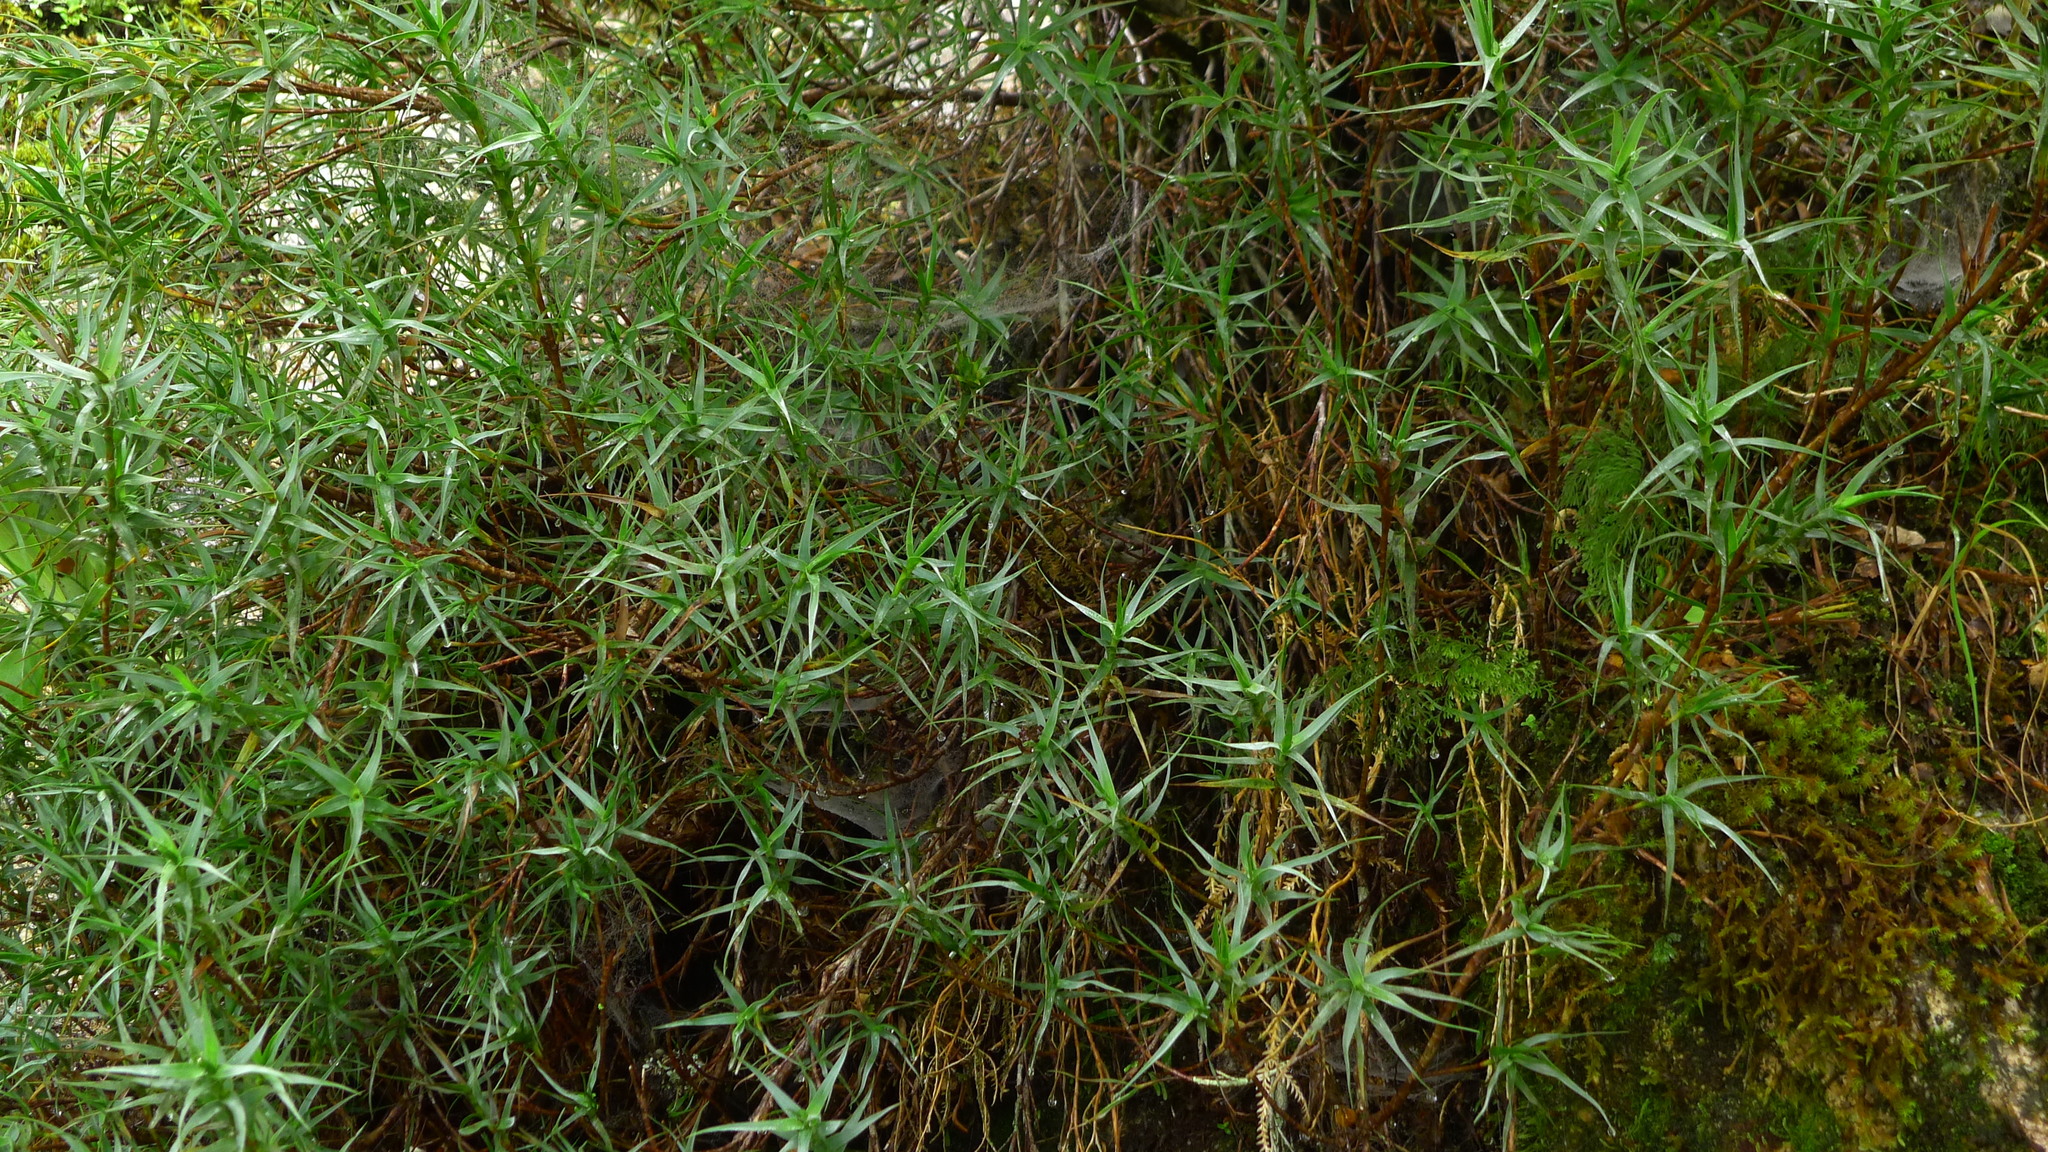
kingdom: Plantae
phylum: Tracheophyta
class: Magnoliopsida
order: Ericales
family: Ericaceae
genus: Dracophyllum
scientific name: Dracophyllum pubescens
